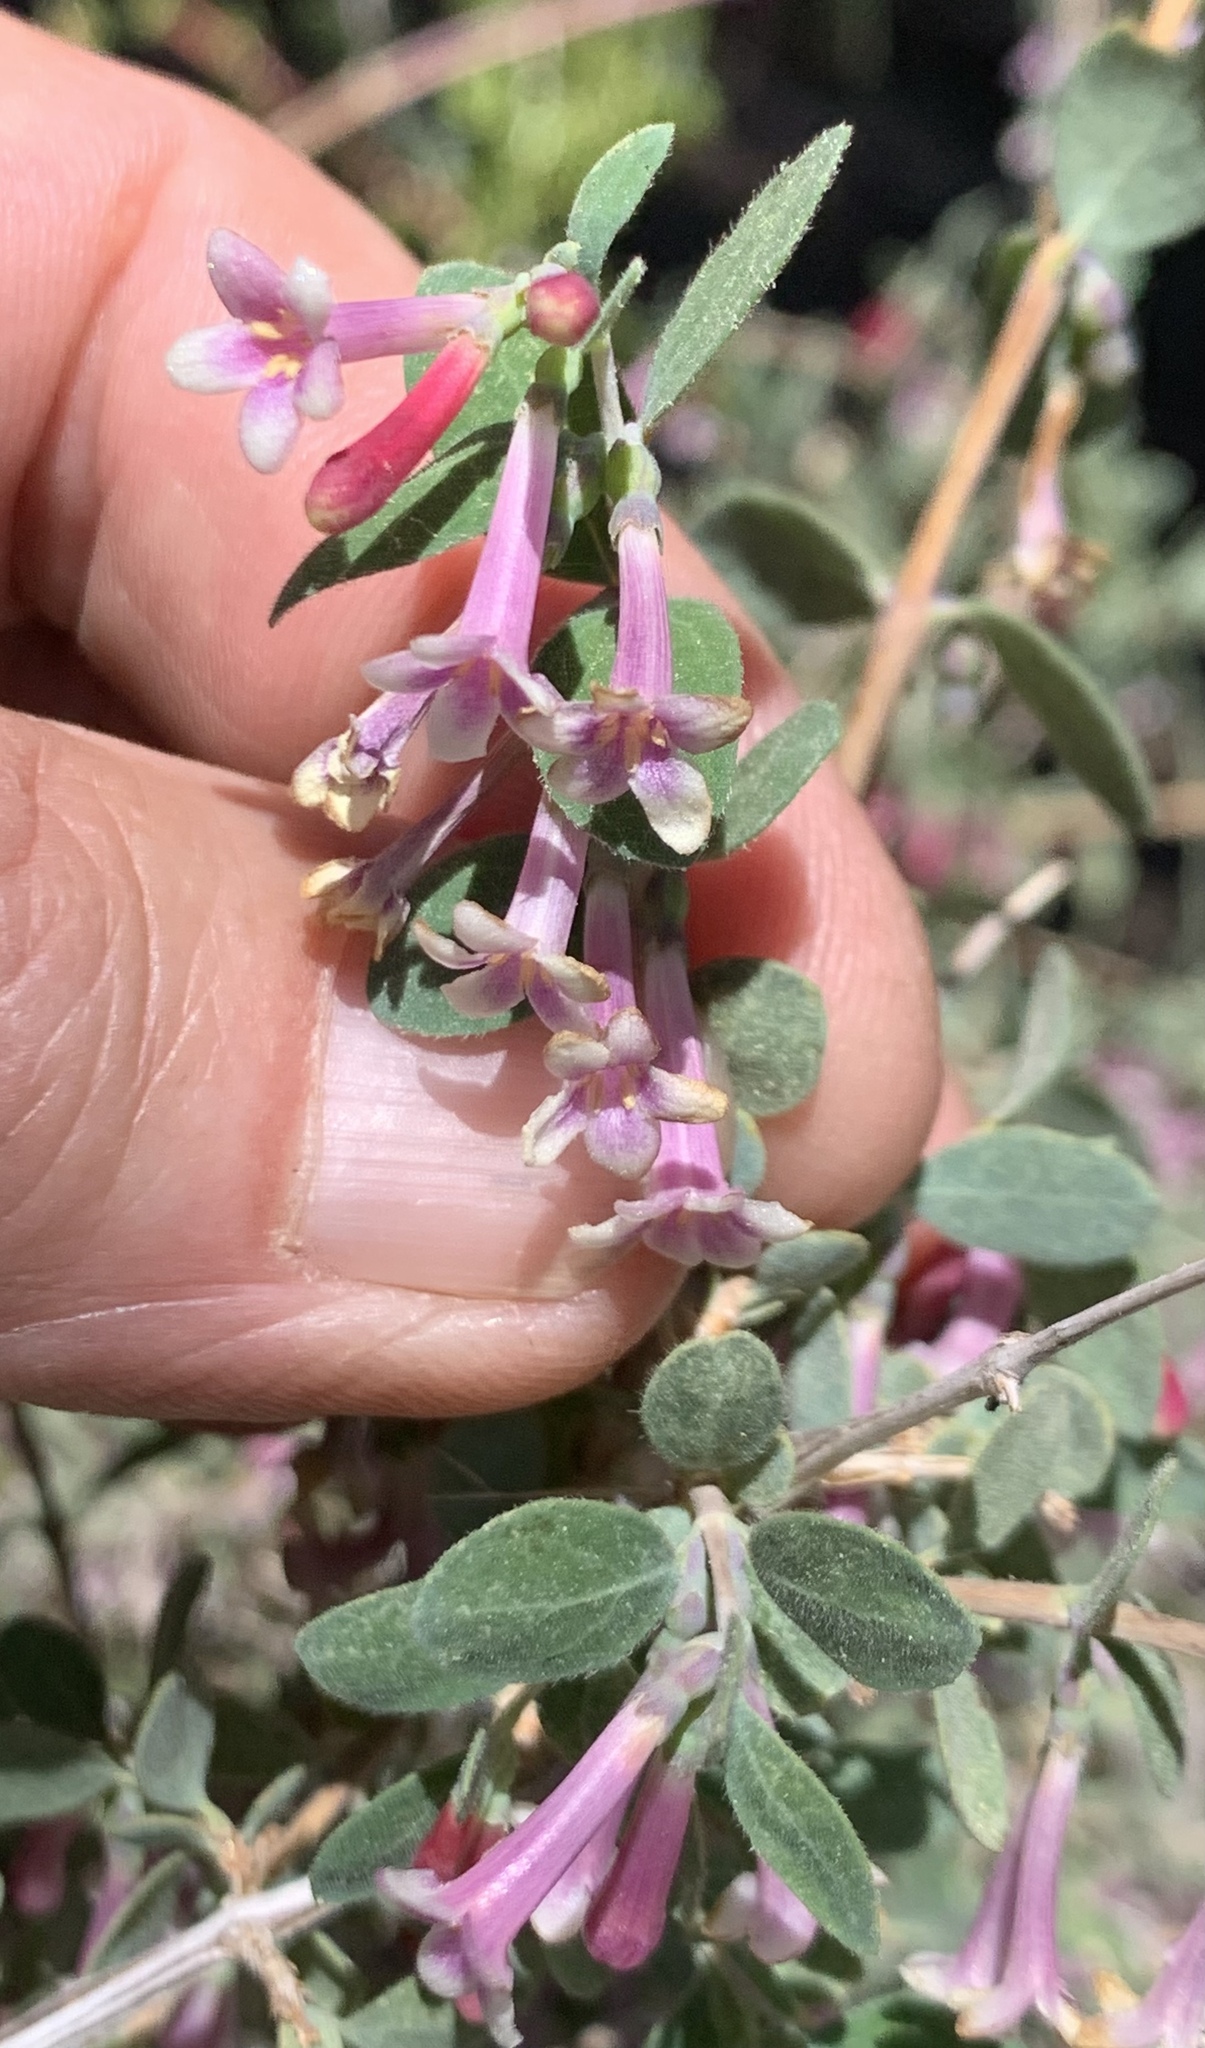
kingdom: Plantae
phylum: Tracheophyta
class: Magnoliopsida
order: Dipsacales
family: Caprifoliaceae
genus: Symphoricarpos
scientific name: Symphoricarpos longiflorus
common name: Fragrant snowberry
